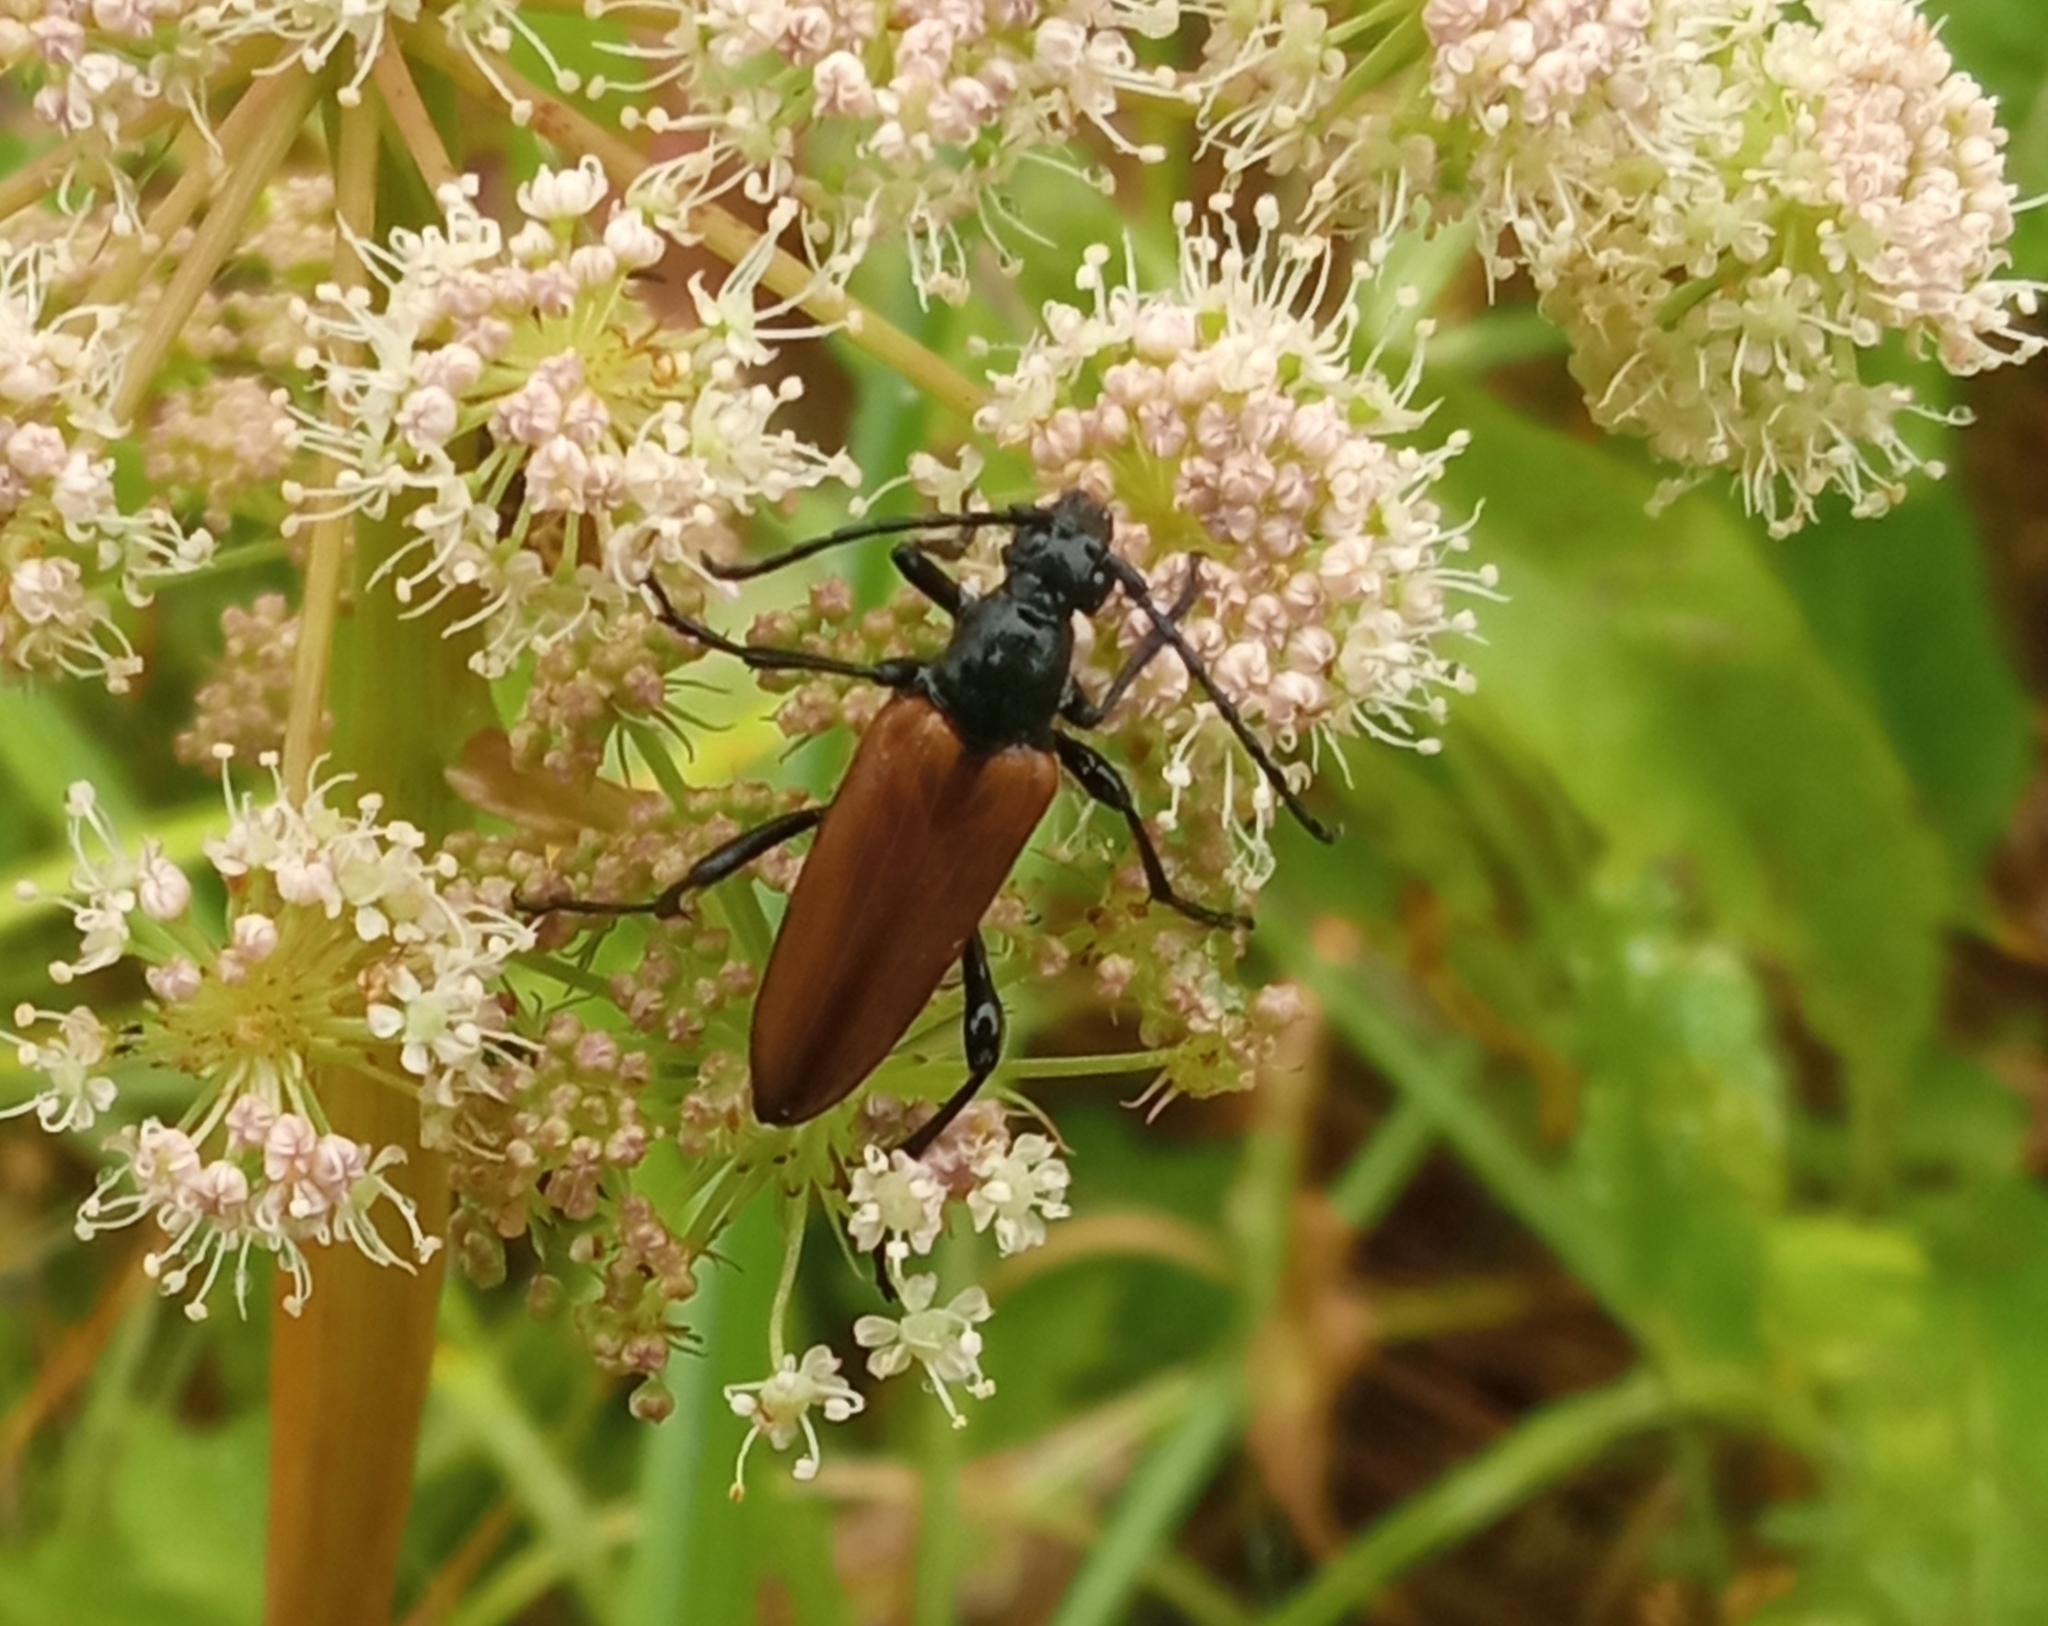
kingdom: Animalia
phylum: Arthropoda
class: Insecta
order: Coleoptera
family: Cerambycidae
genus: Lepturalia
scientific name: Lepturalia nigripes
